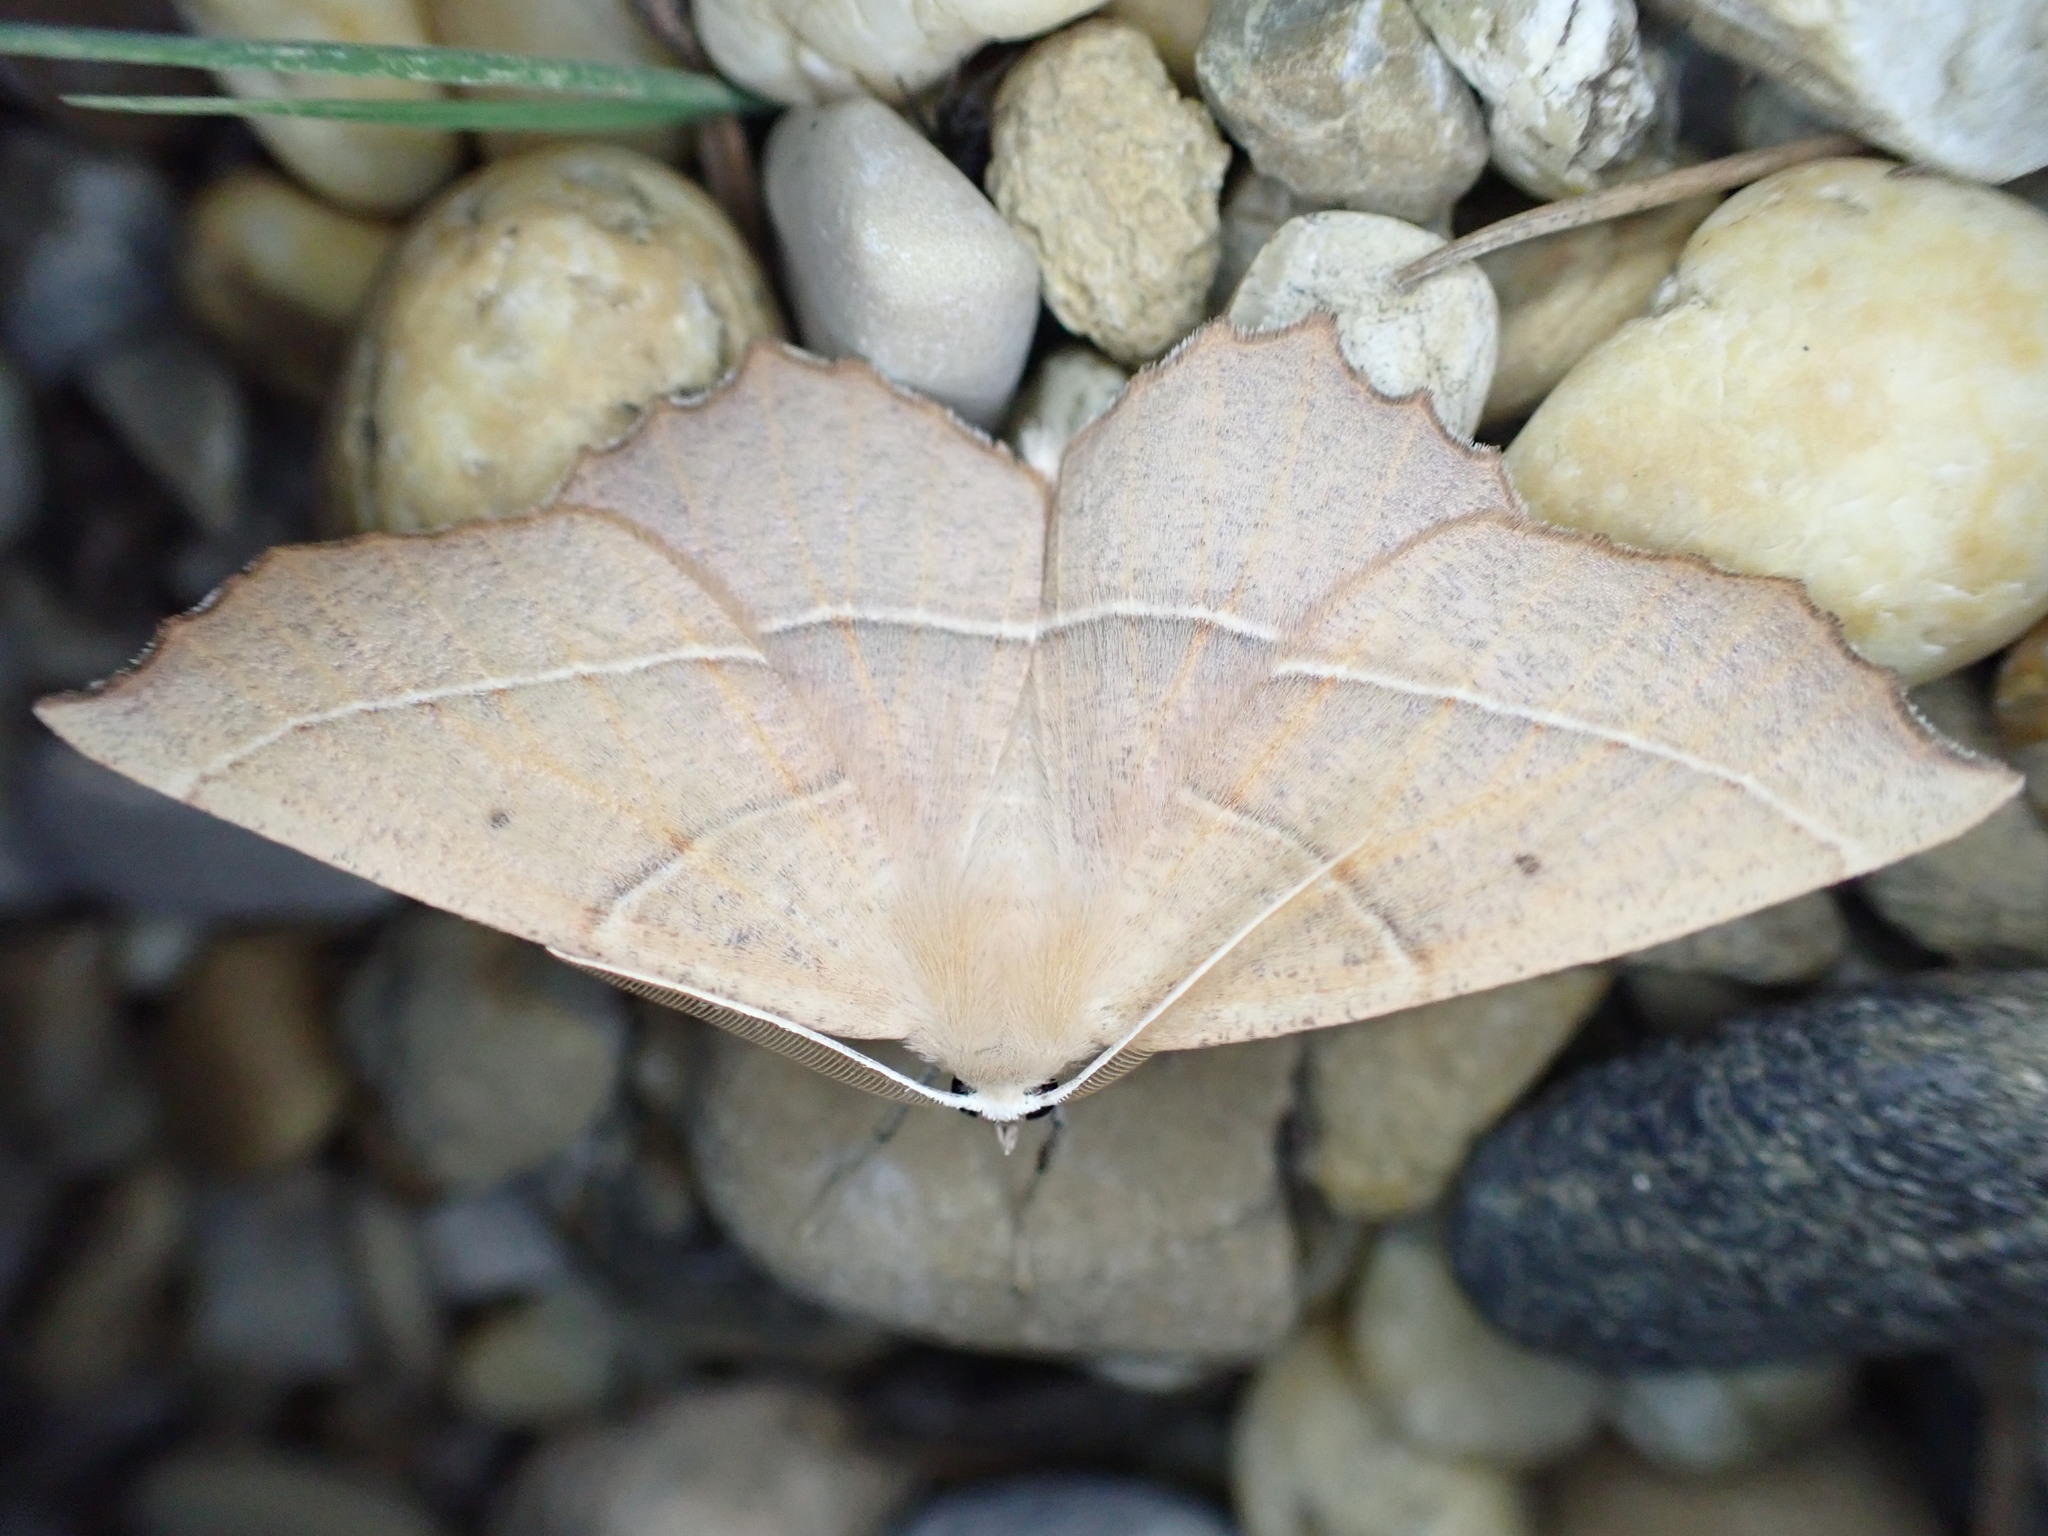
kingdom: Animalia
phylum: Arthropoda
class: Insecta
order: Lepidoptera
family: Geometridae
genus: Gerinia
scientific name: Gerinia honoraria
